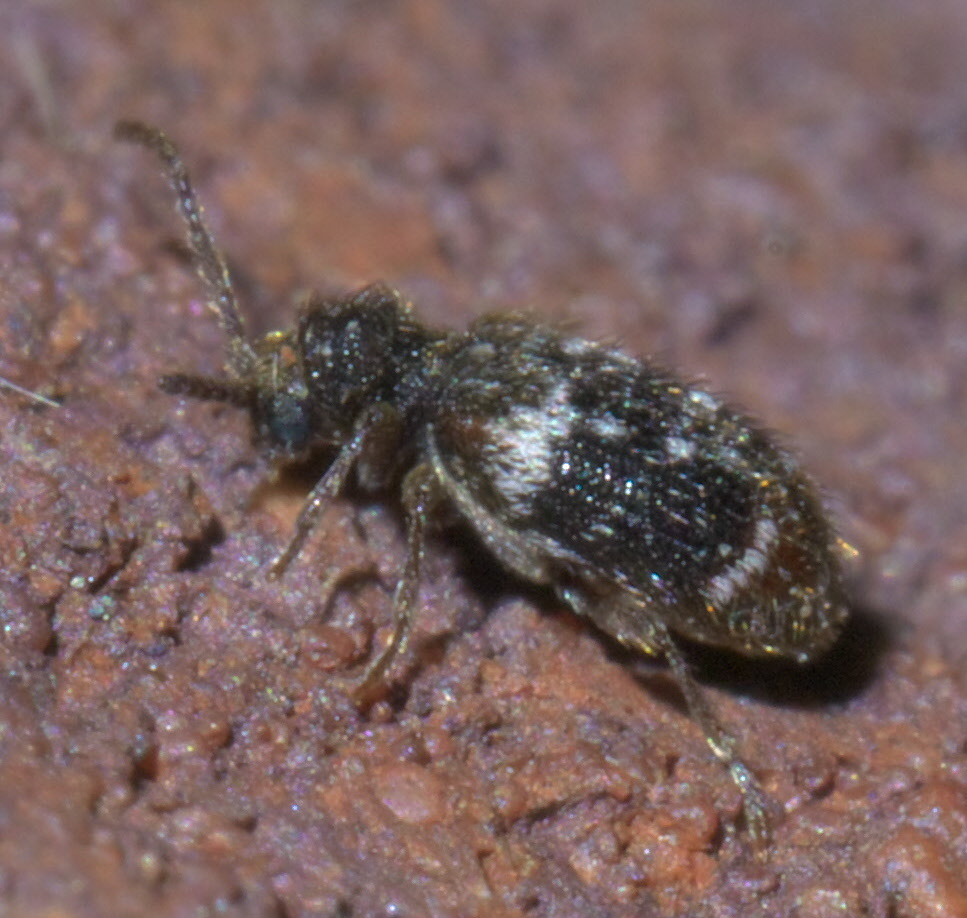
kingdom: Animalia
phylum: Arthropoda
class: Insecta
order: Coleoptera
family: Ptinidae
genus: Ptinus
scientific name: Ptinus bimaculatus
